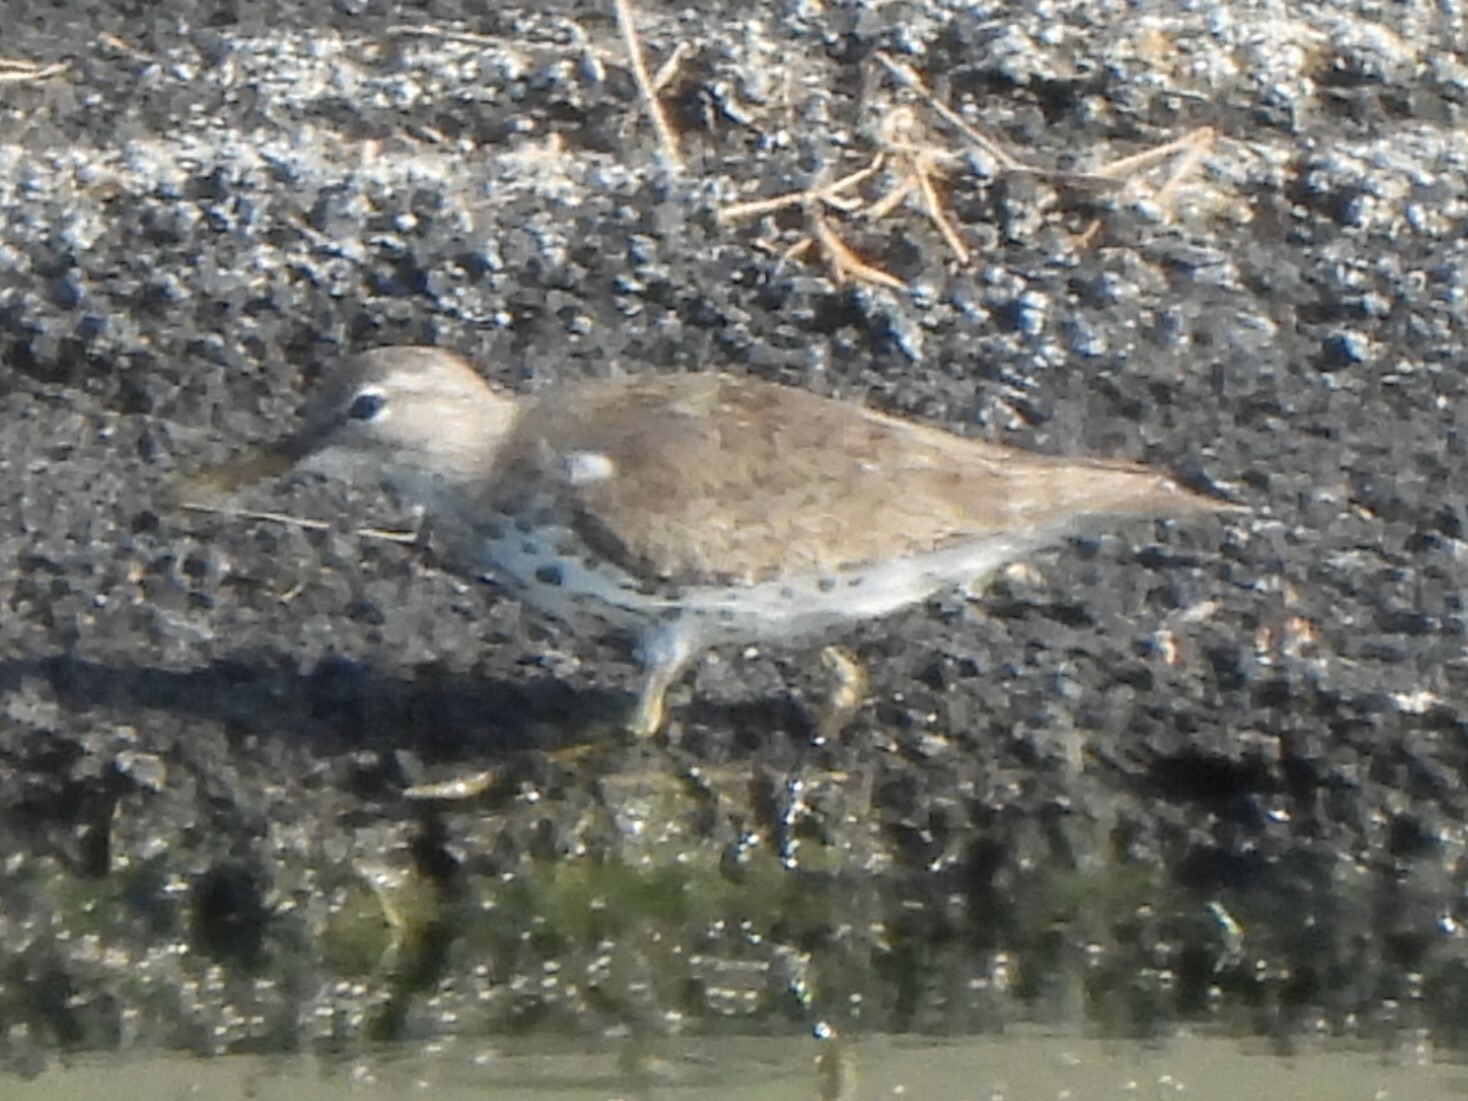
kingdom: Animalia
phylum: Chordata
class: Aves
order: Charadriiformes
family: Scolopacidae
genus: Actitis
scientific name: Actitis macularius
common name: Spotted sandpiper
